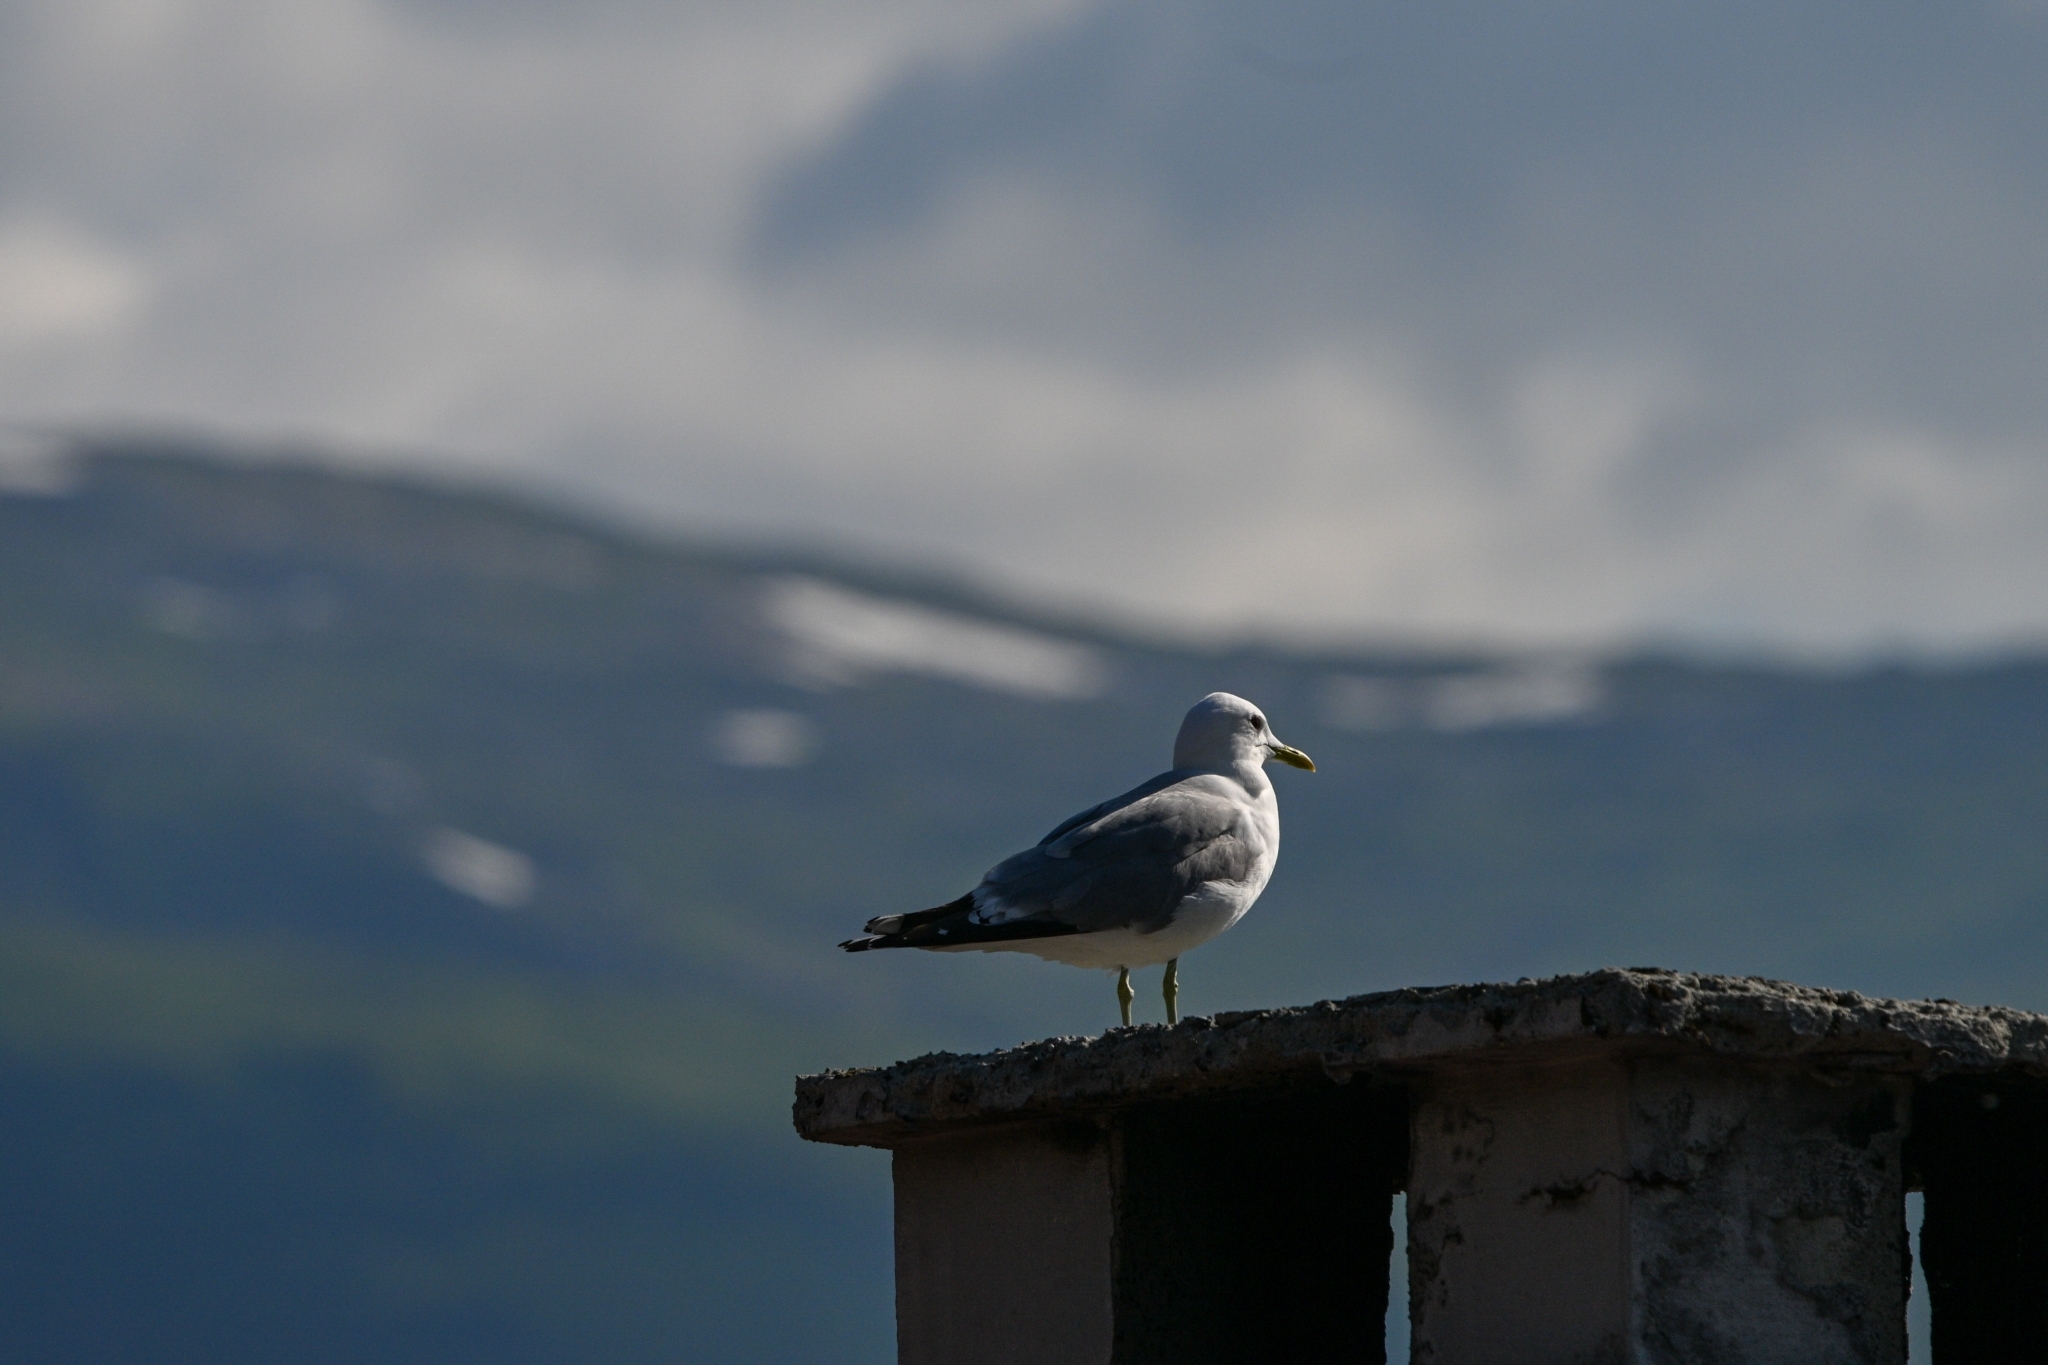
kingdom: Animalia
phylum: Chordata
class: Aves
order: Charadriiformes
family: Laridae
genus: Larus
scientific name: Larus canus
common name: Mew gull
